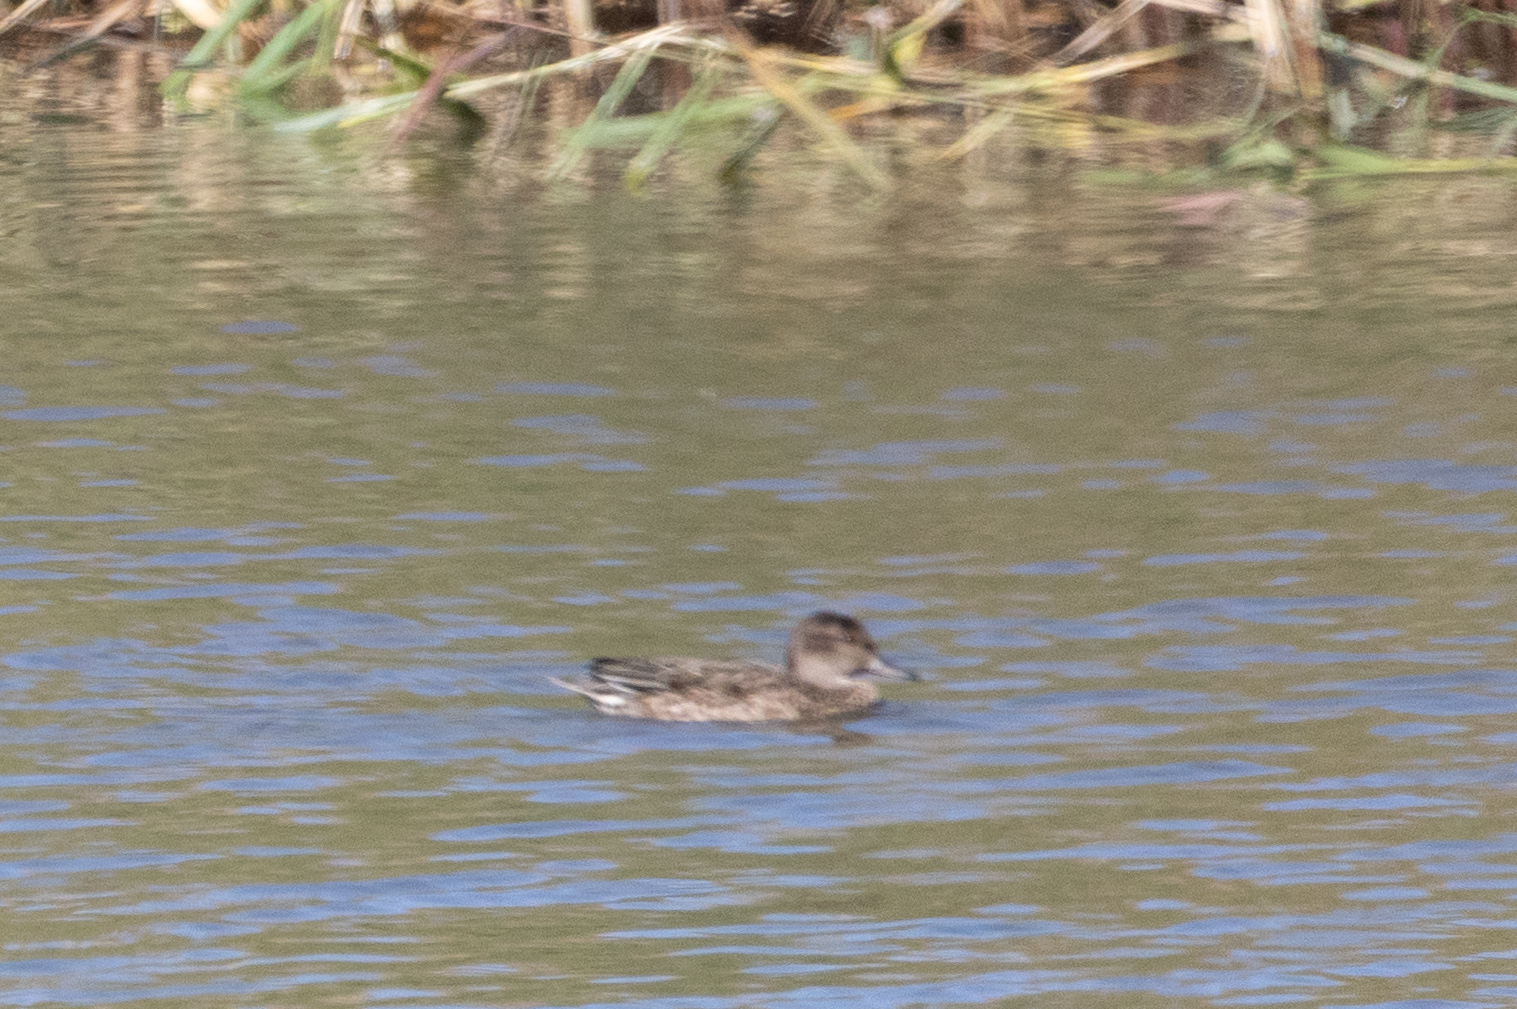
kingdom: Animalia
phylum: Chordata
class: Aves
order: Anseriformes
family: Anatidae
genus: Anas
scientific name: Anas crecca
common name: Eurasian teal
